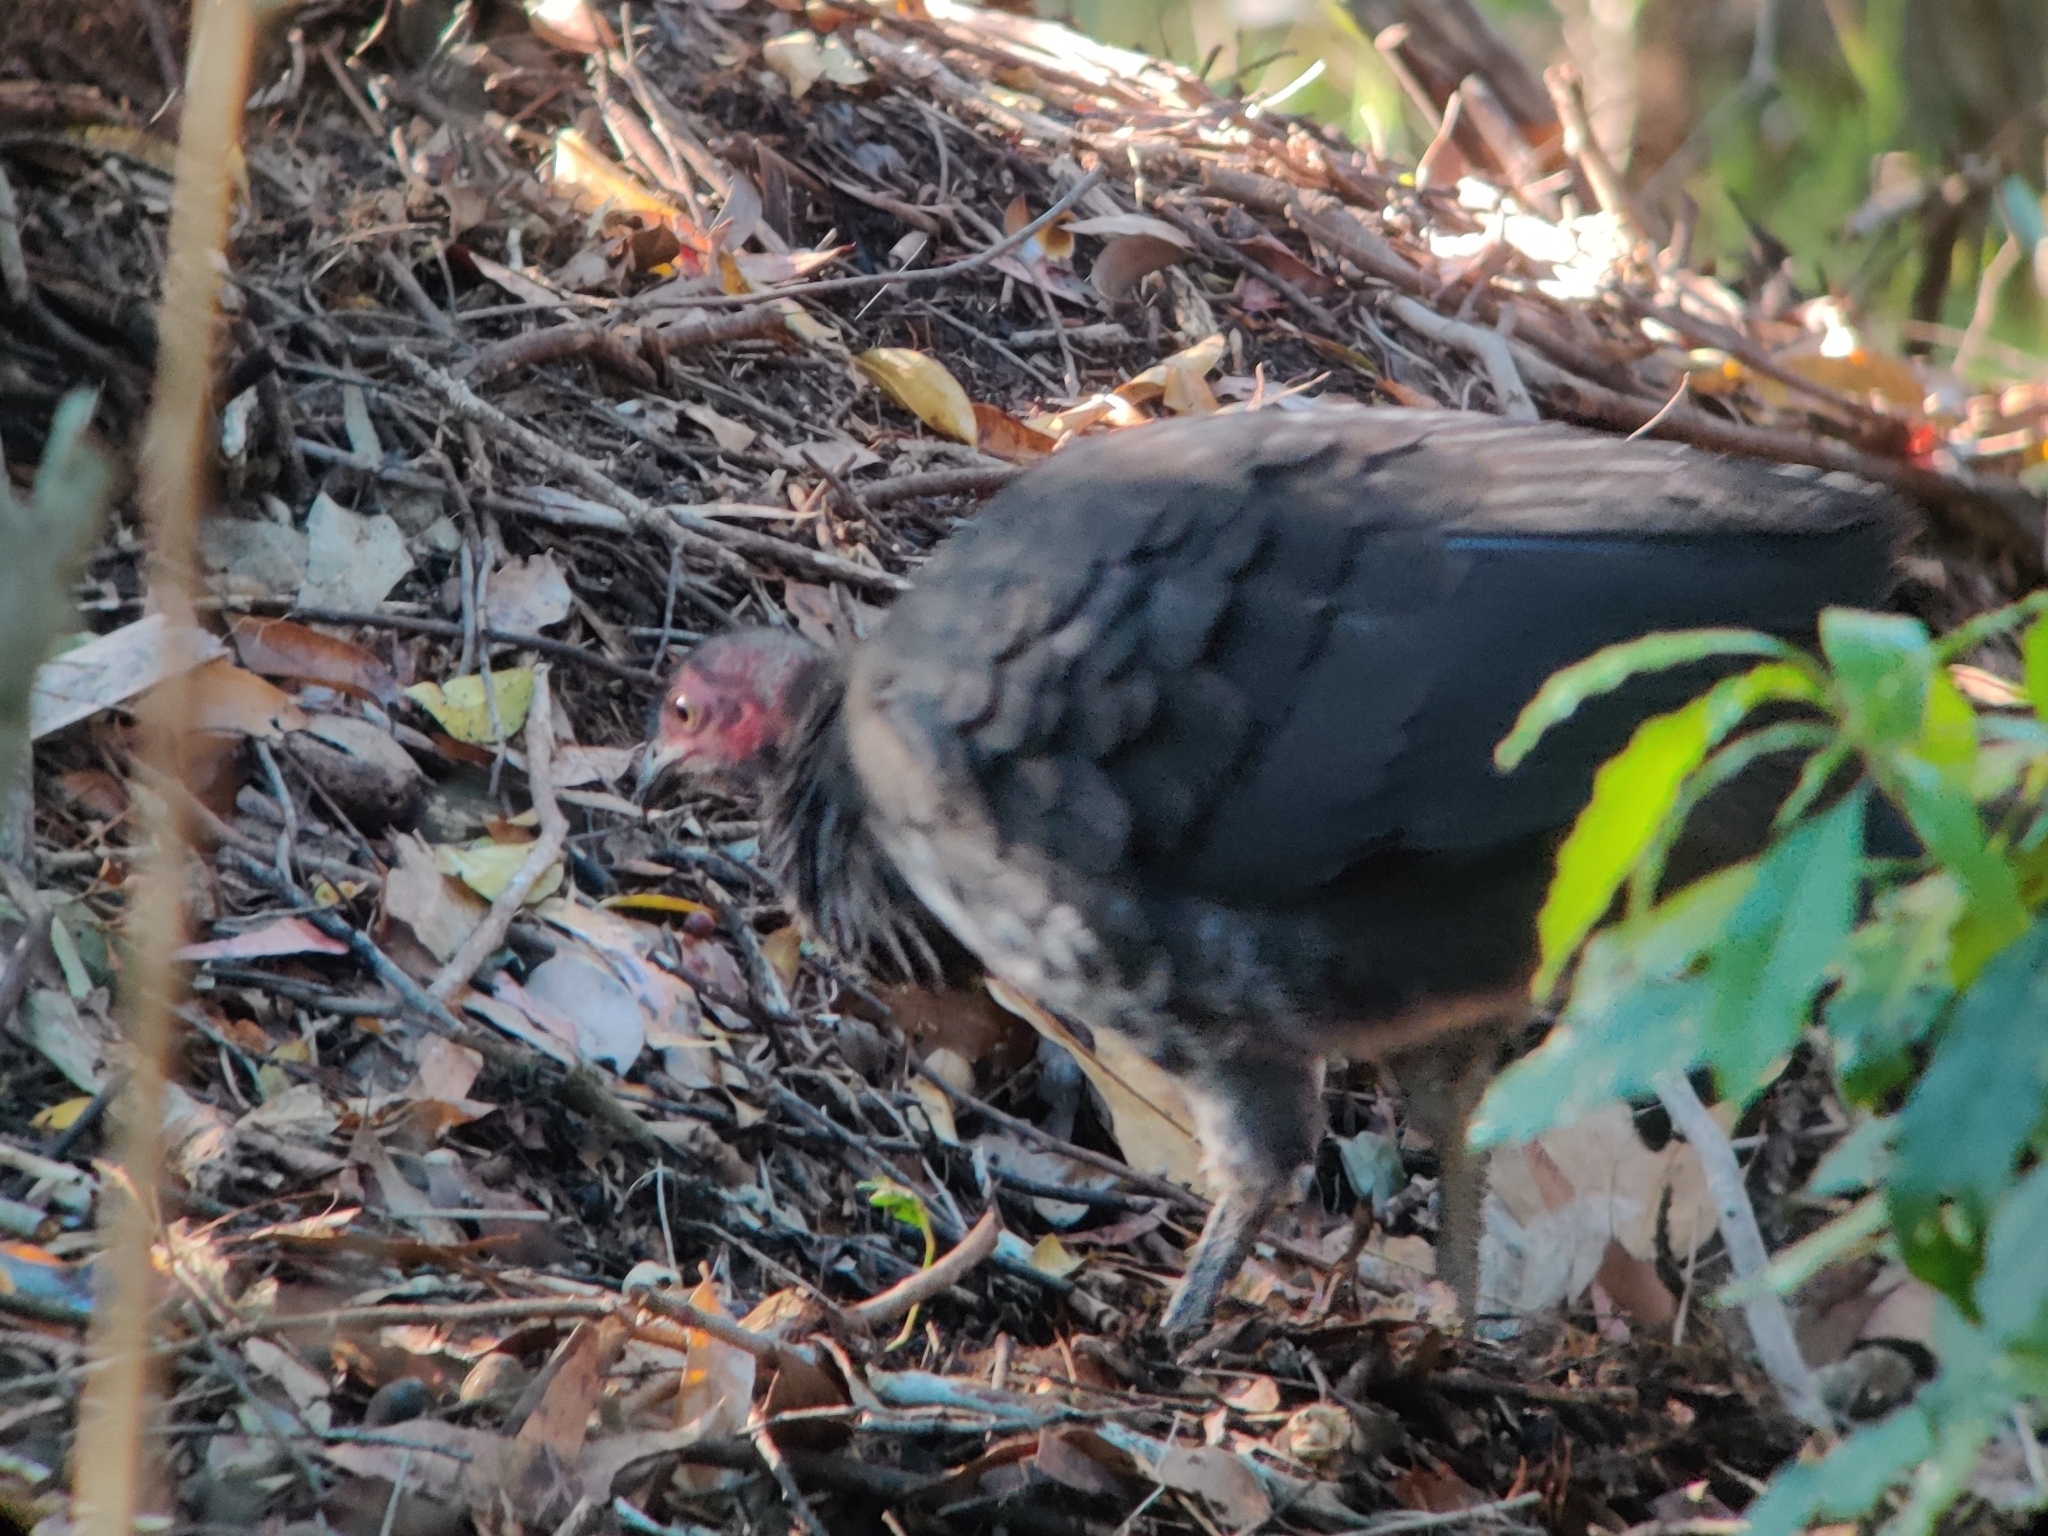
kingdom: Animalia
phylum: Chordata
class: Aves
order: Galliformes
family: Megapodiidae
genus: Alectura
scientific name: Alectura lathami
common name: Australian brushturkey
